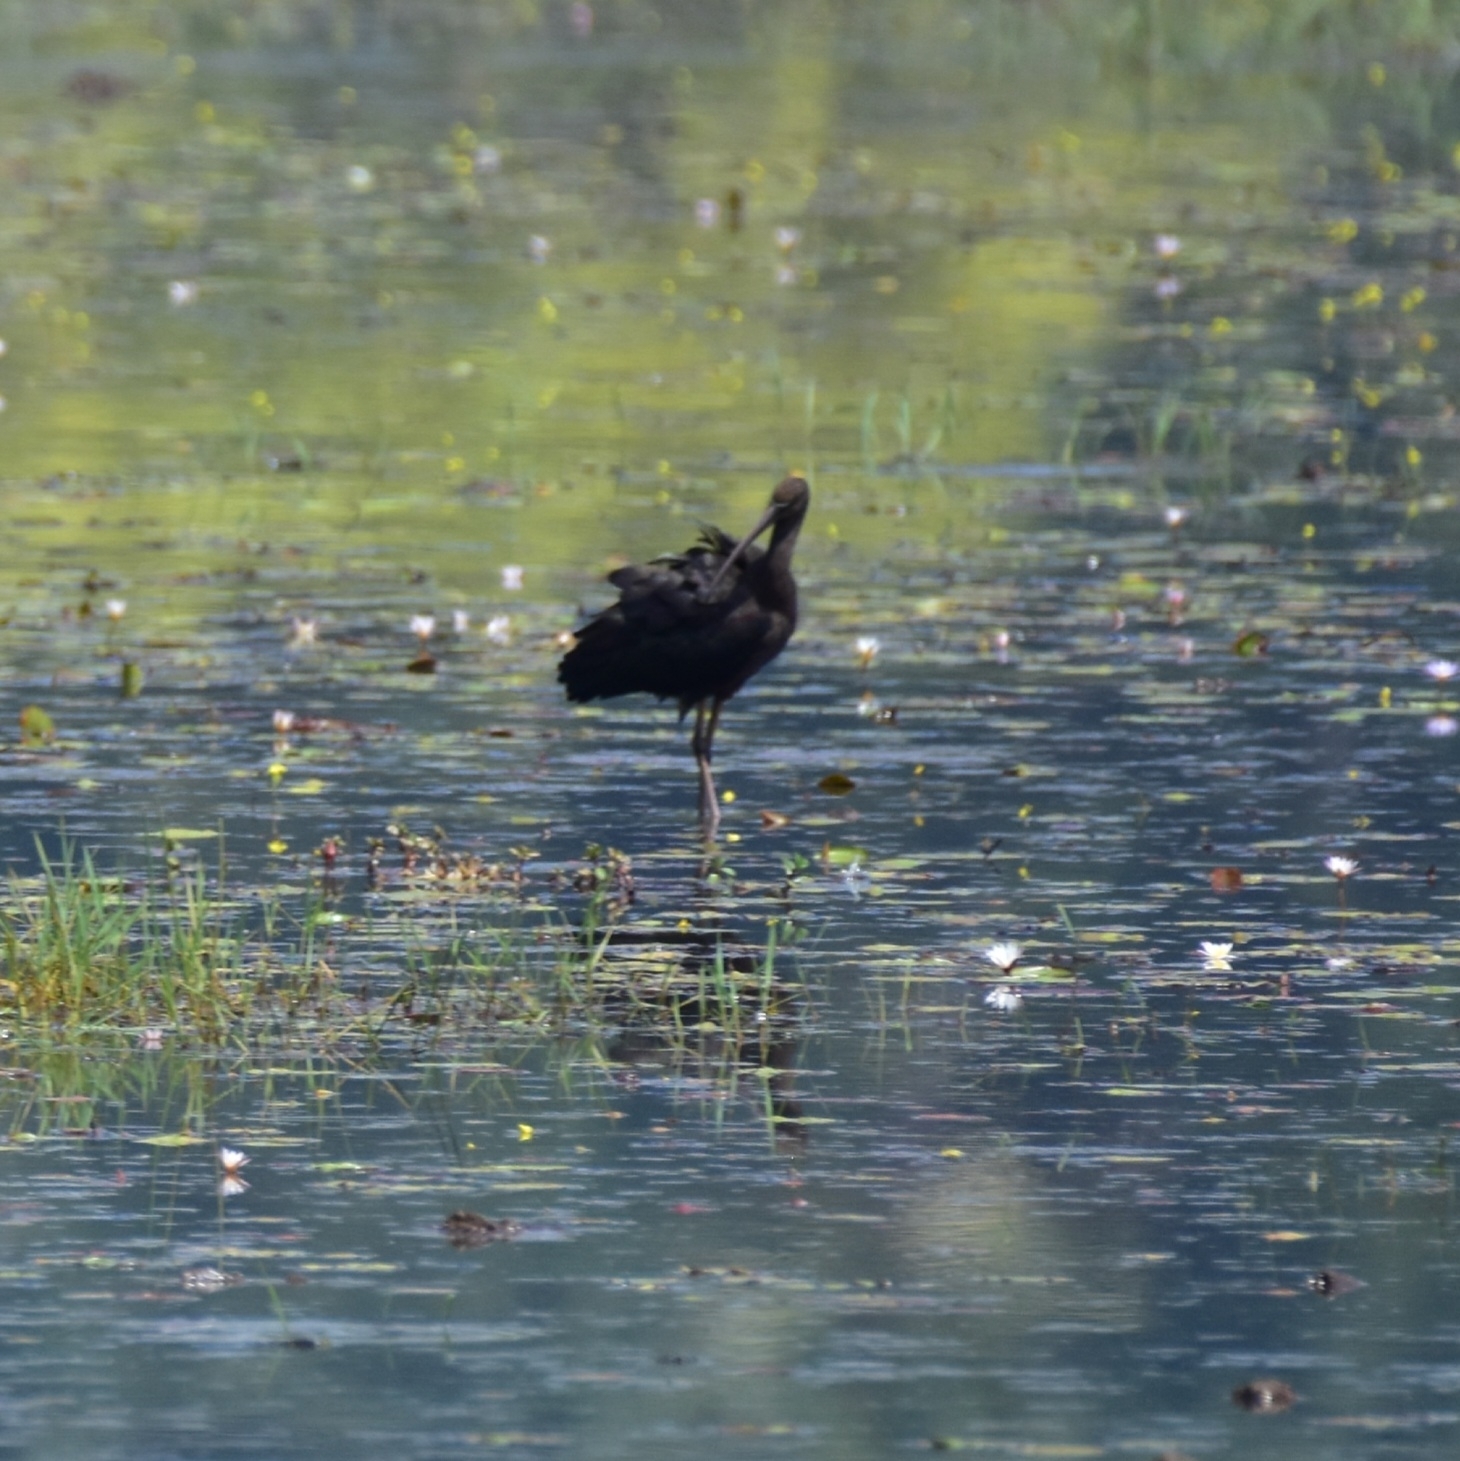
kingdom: Animalia
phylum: Chordata
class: Aves
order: Pelecaniformes
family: Threskiornithidae
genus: Plegadis
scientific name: Plegadis falcinellus
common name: Glossy ibis
